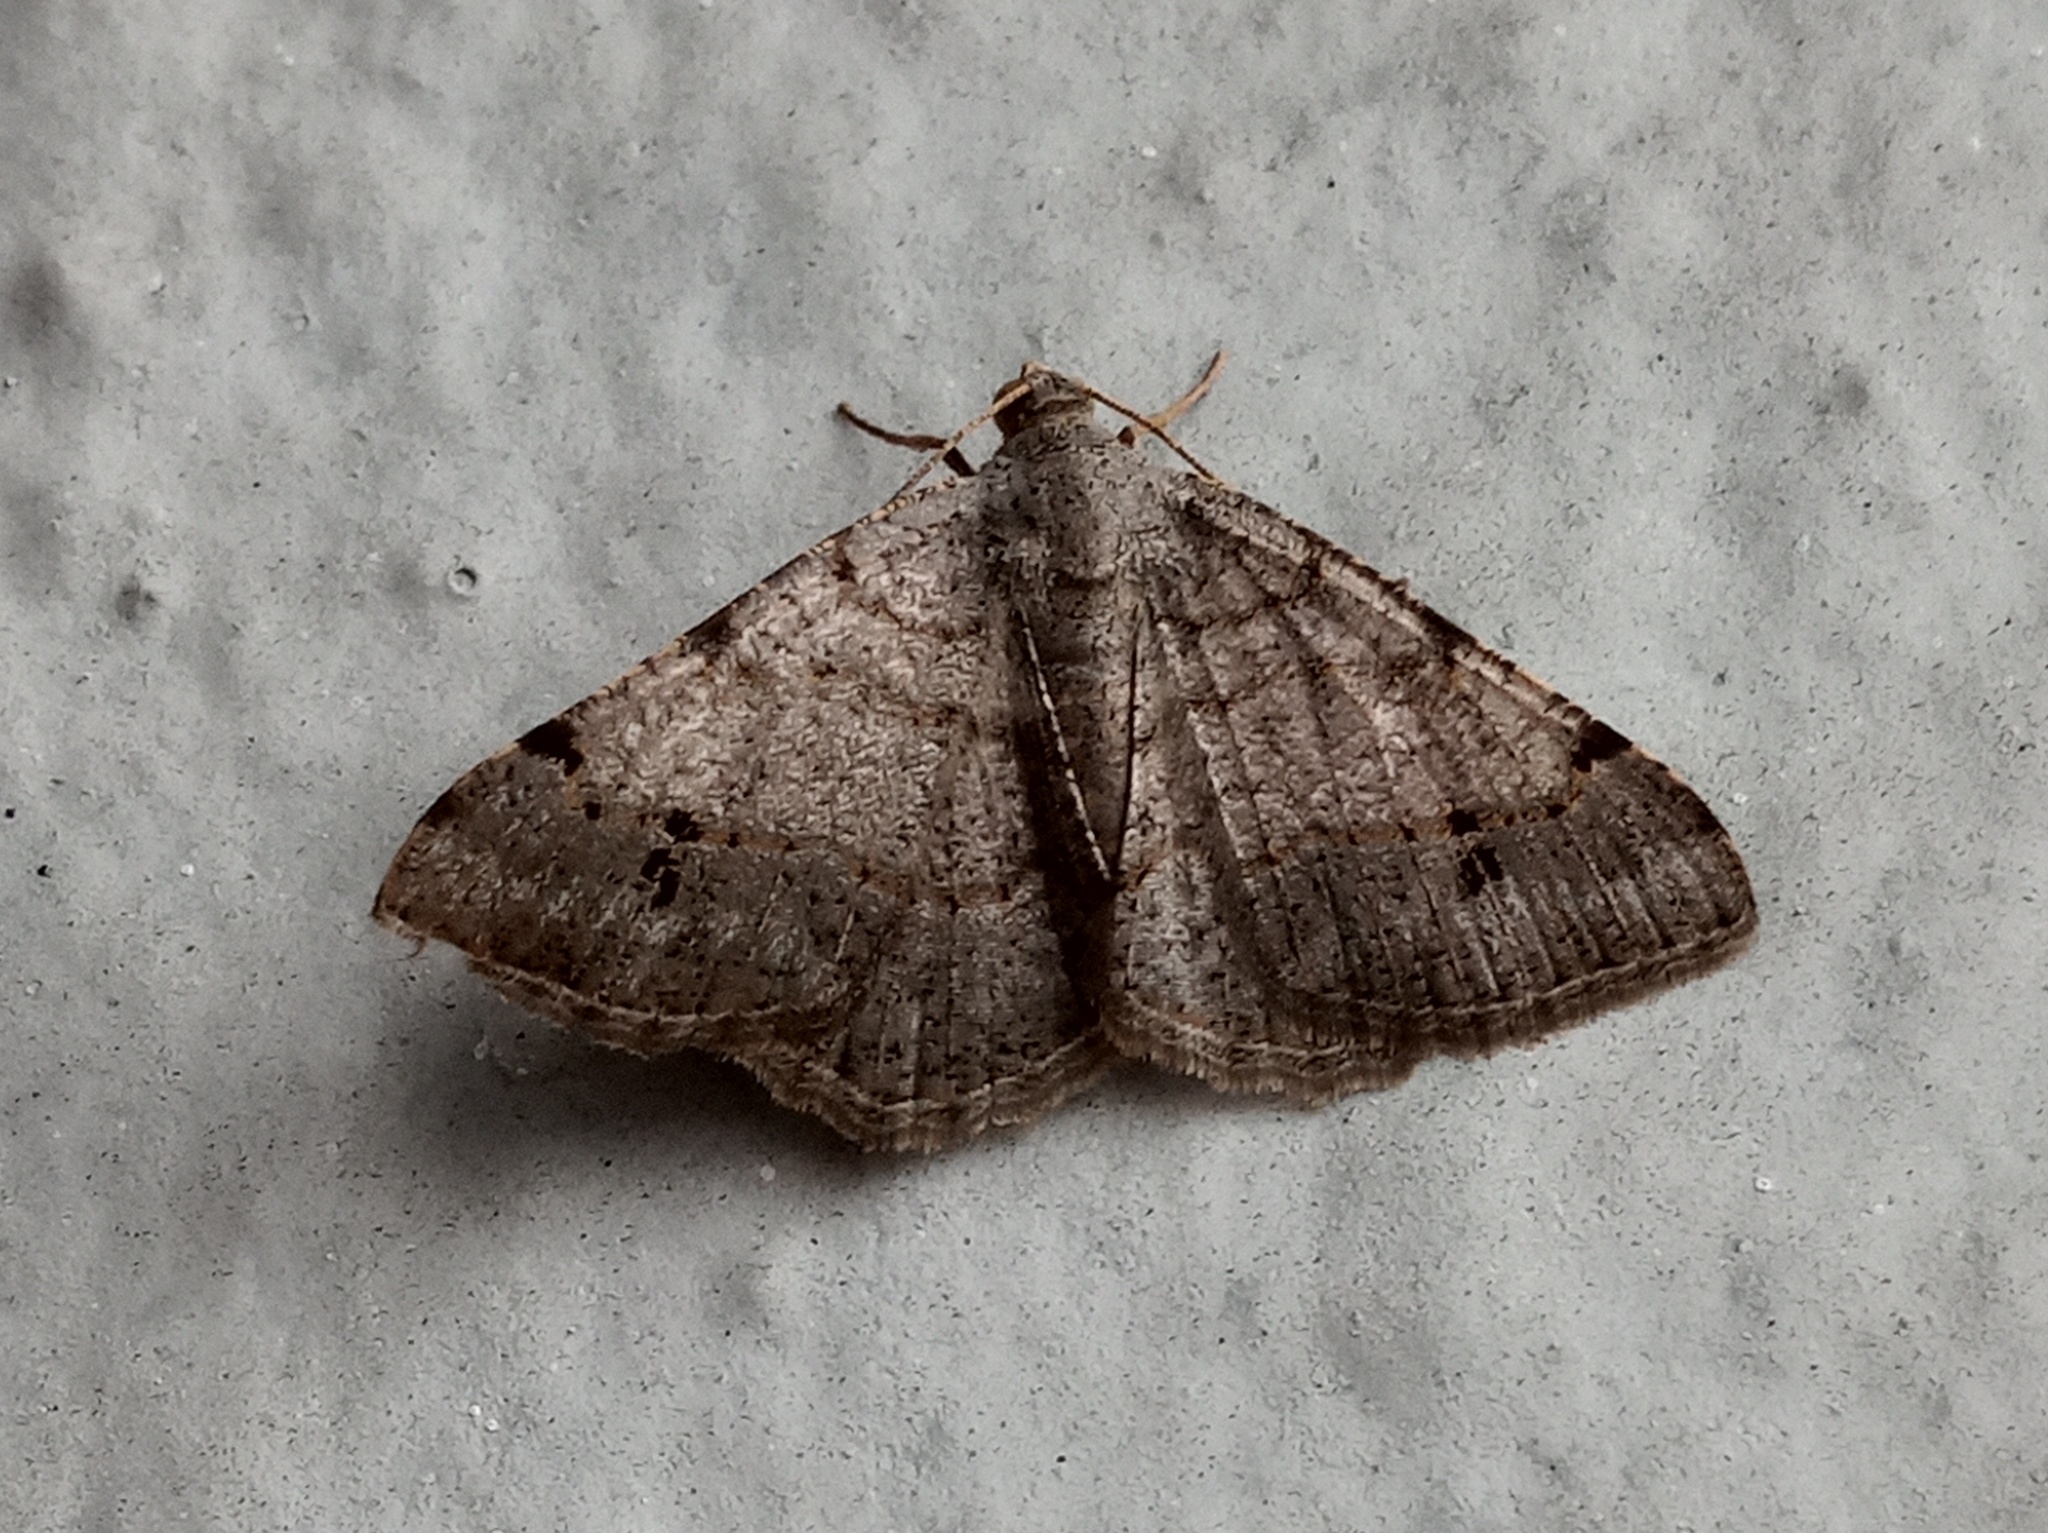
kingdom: Animalia
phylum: Arthropoda
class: Insecta
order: Lepidoptera
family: Geometridae
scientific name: Geometridae
